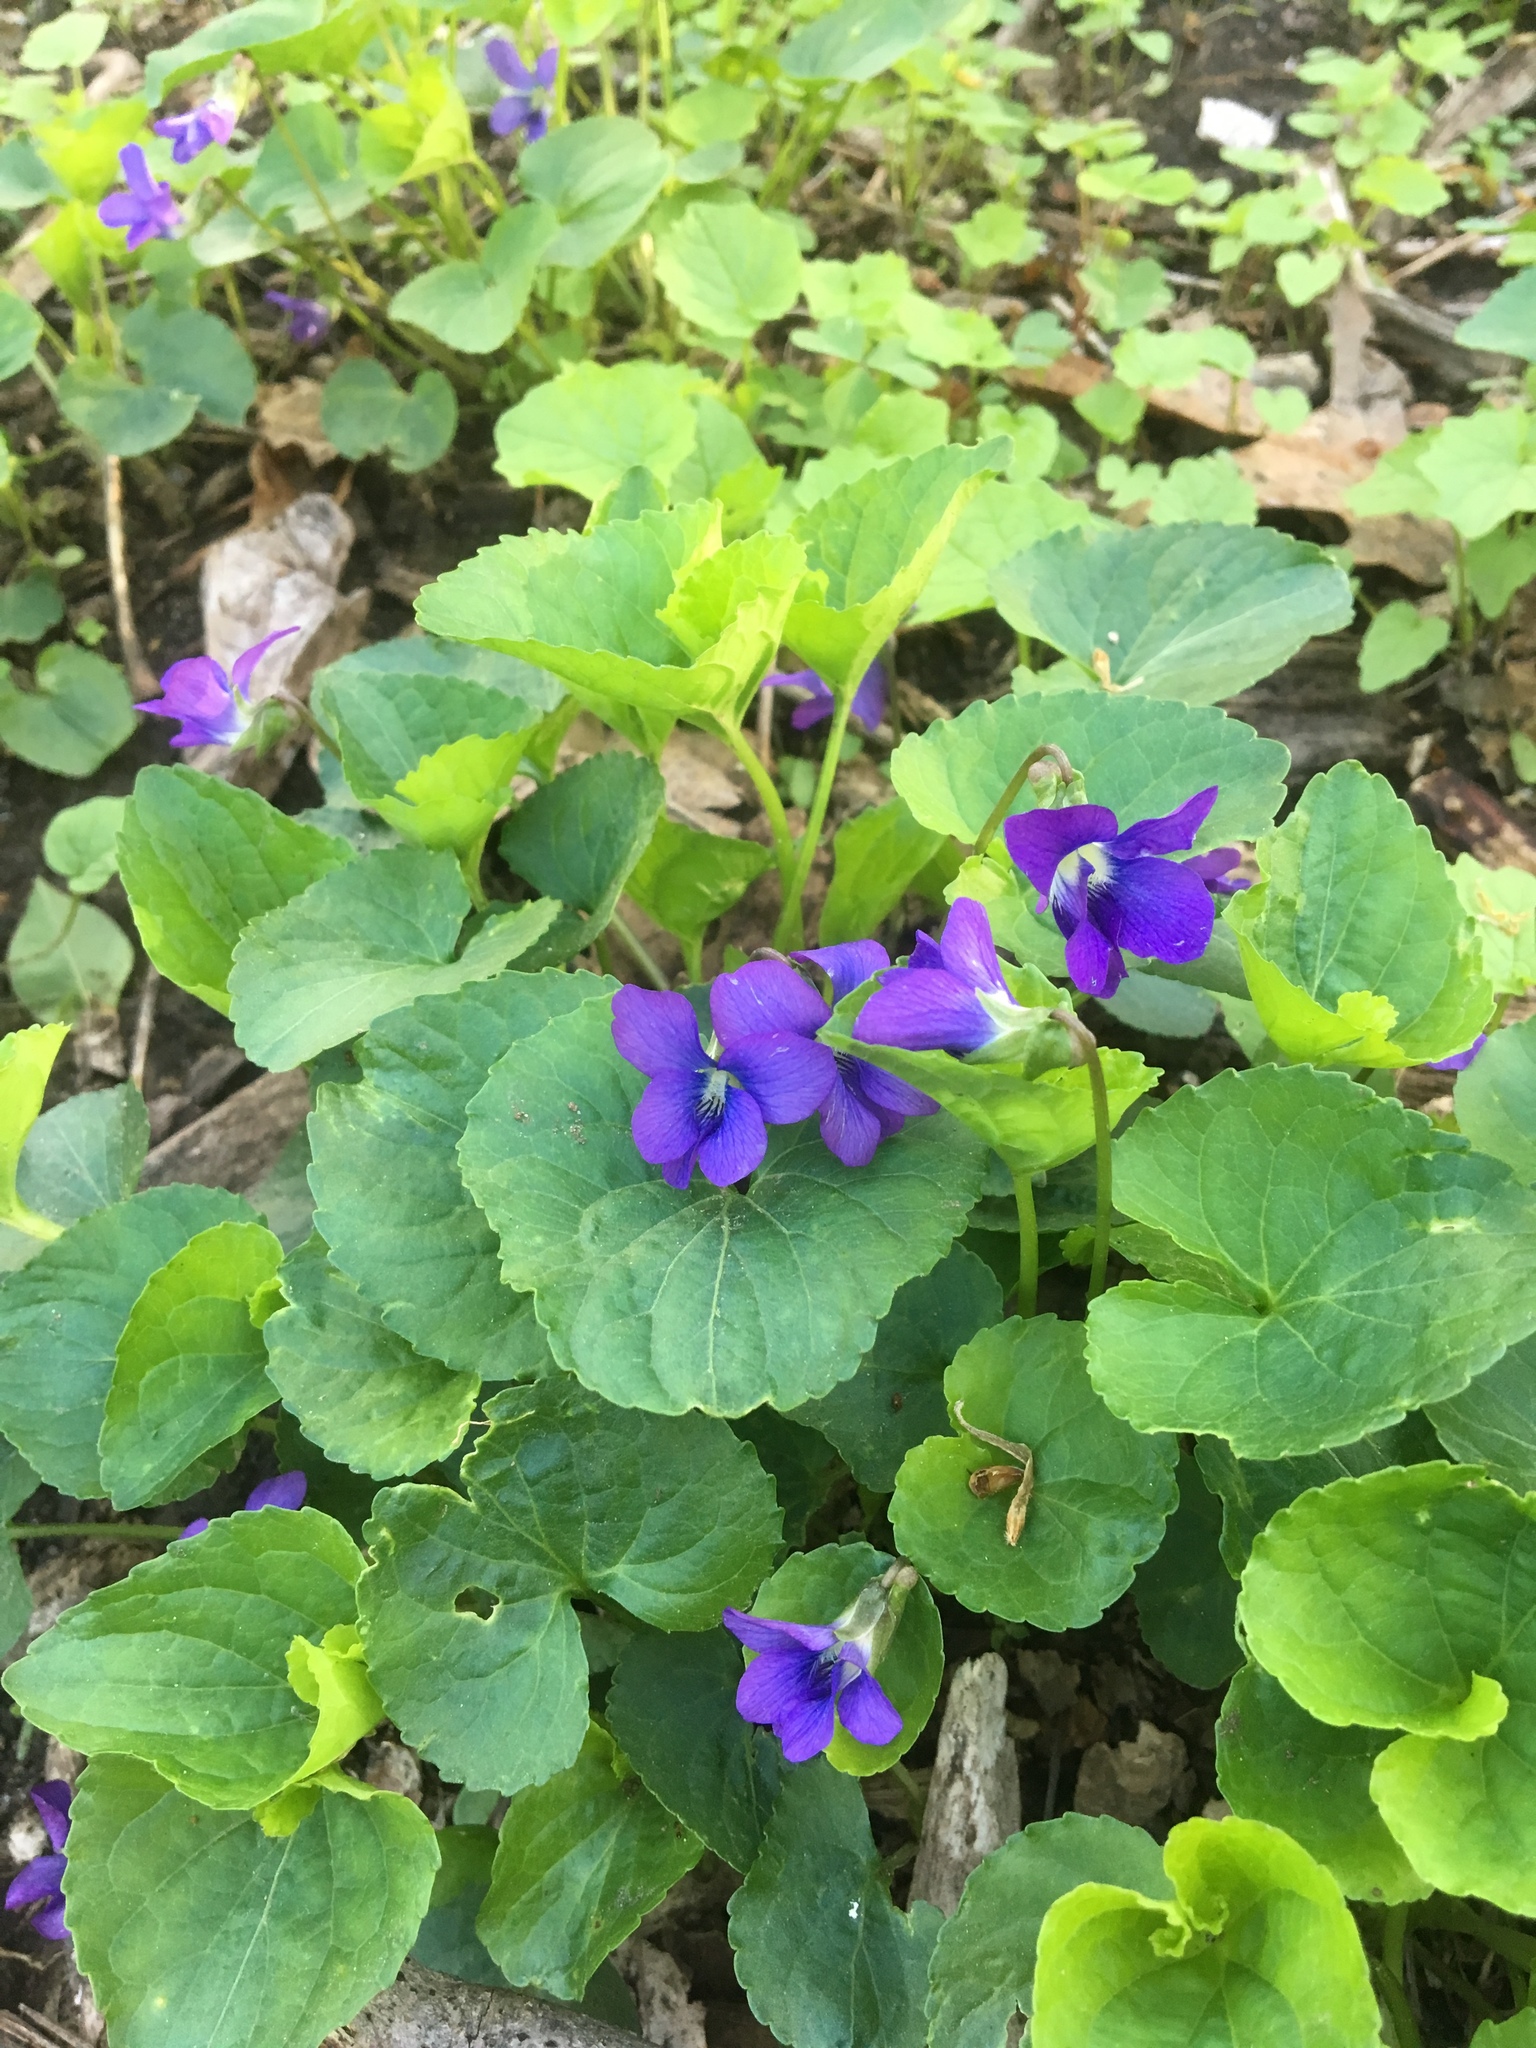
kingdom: Plantae
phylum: Tracheophyta
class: Magnoliopsida
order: Malpighiales
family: Violaceae
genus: Viola
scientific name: Viola sororia
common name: Dooryard violet
